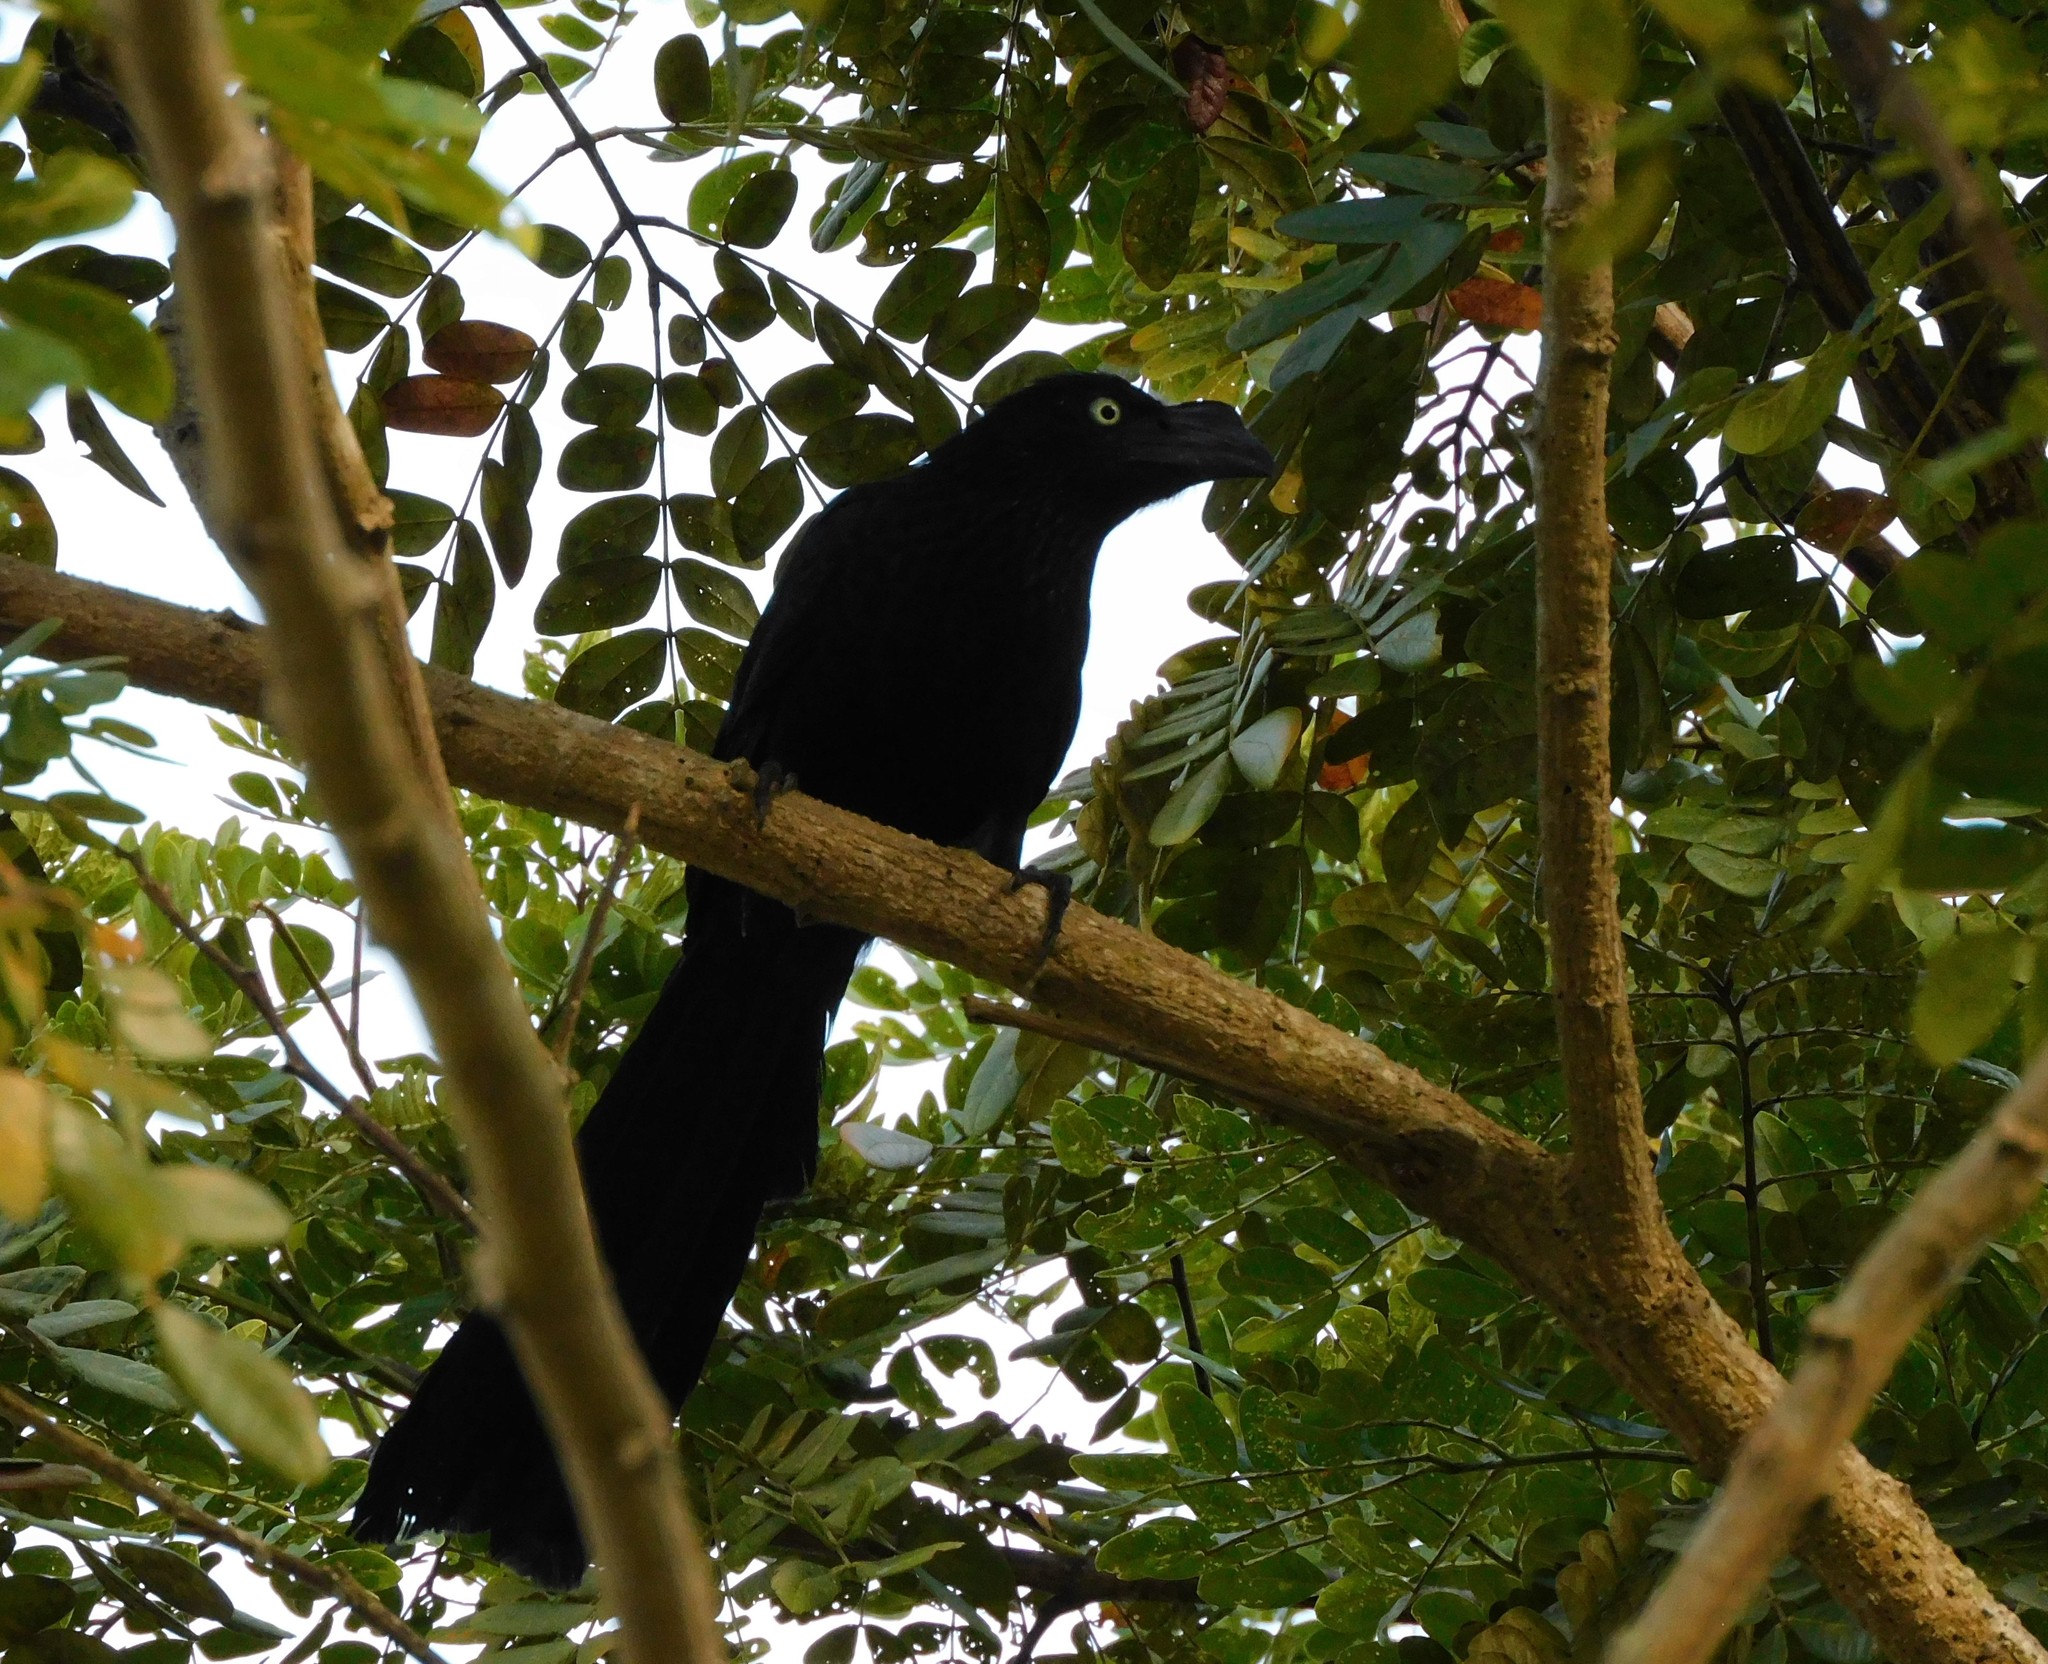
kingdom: Animalia
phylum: Chordata
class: Aves
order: Cuculiformes
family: Cuculidae
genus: Crotophaga
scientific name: Crotophaga major
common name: Greater ani
